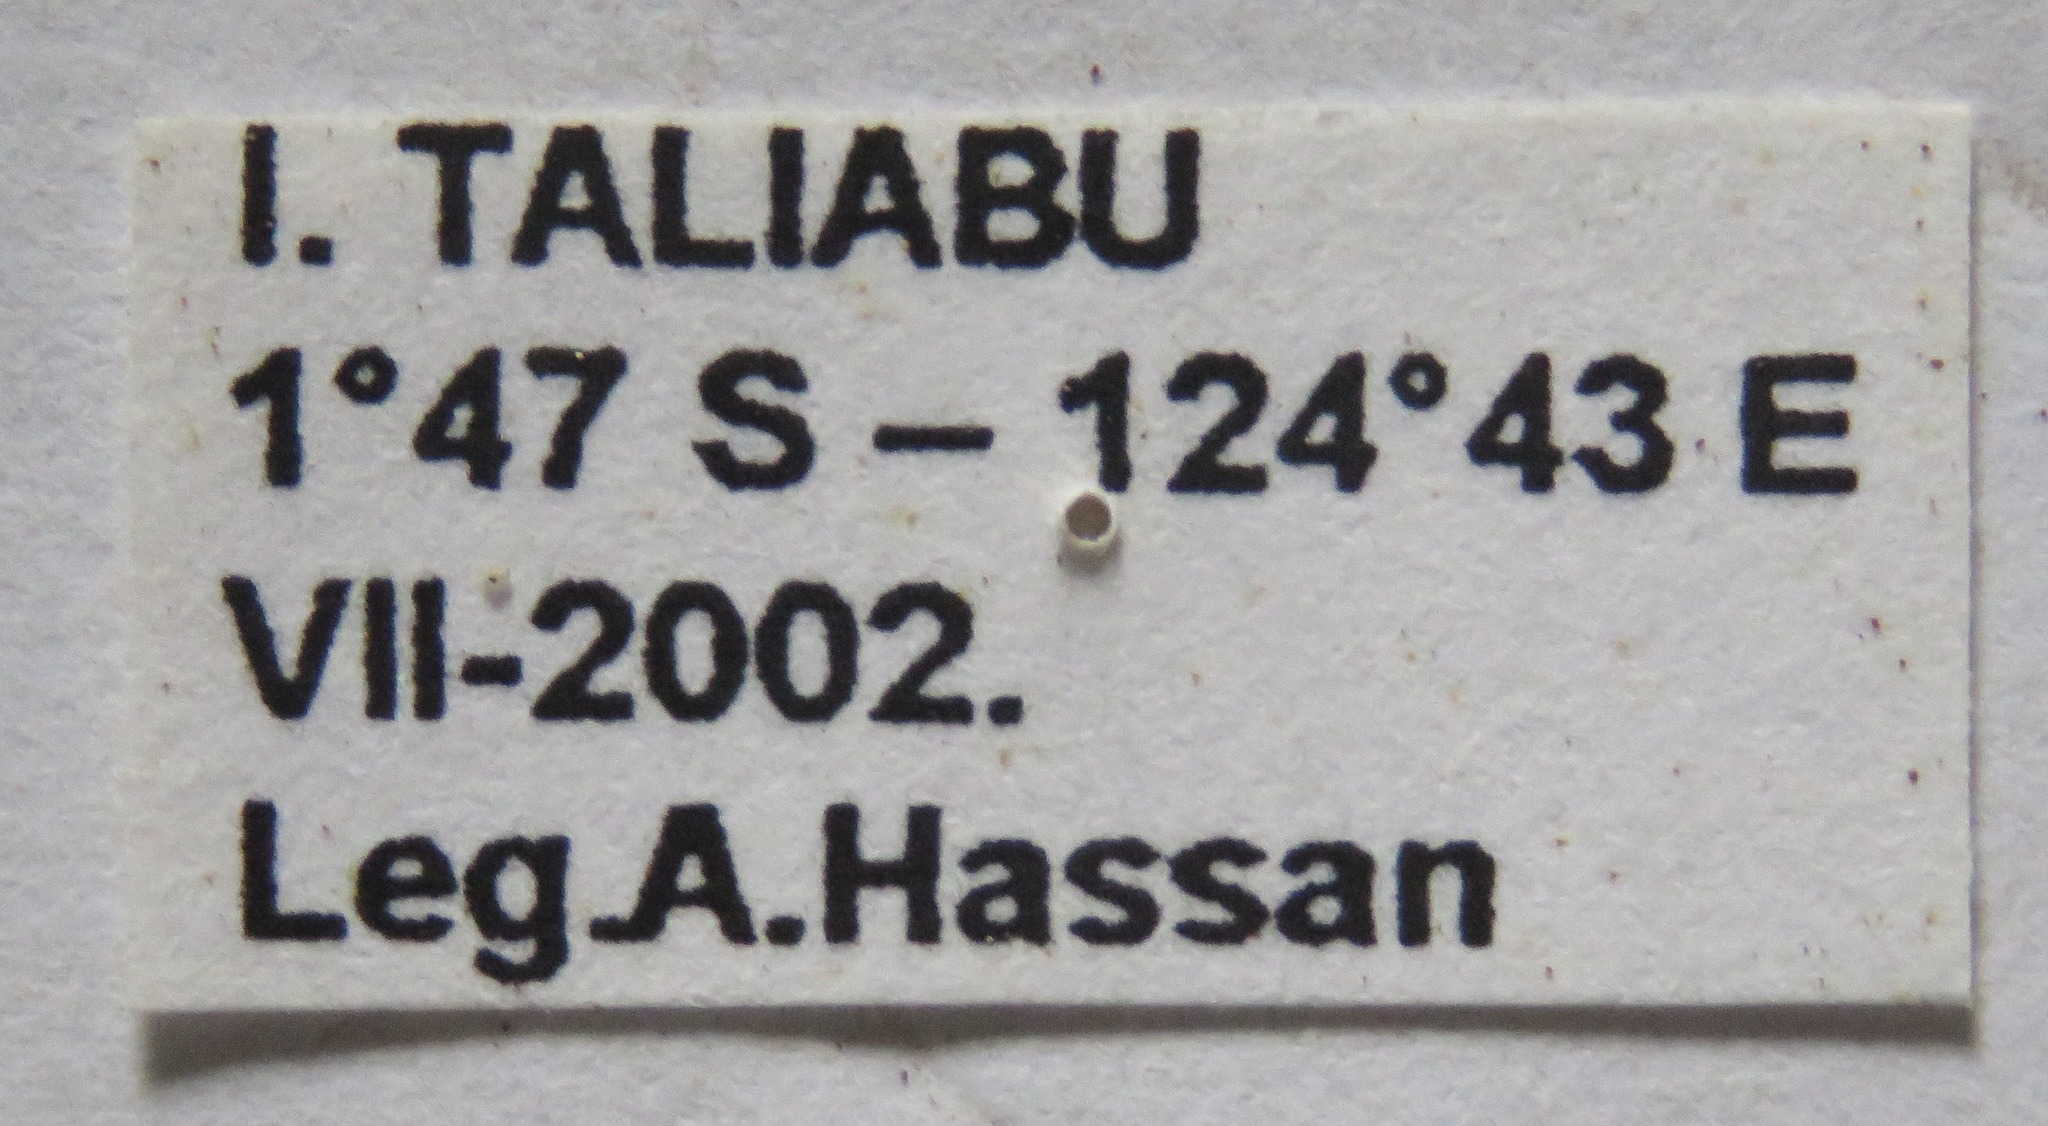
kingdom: Animalia
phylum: Arthropoda
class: Insecta
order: Coleoptera
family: Lucanidae
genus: Prosopocoilus
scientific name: Prosopocoilus bruijni
